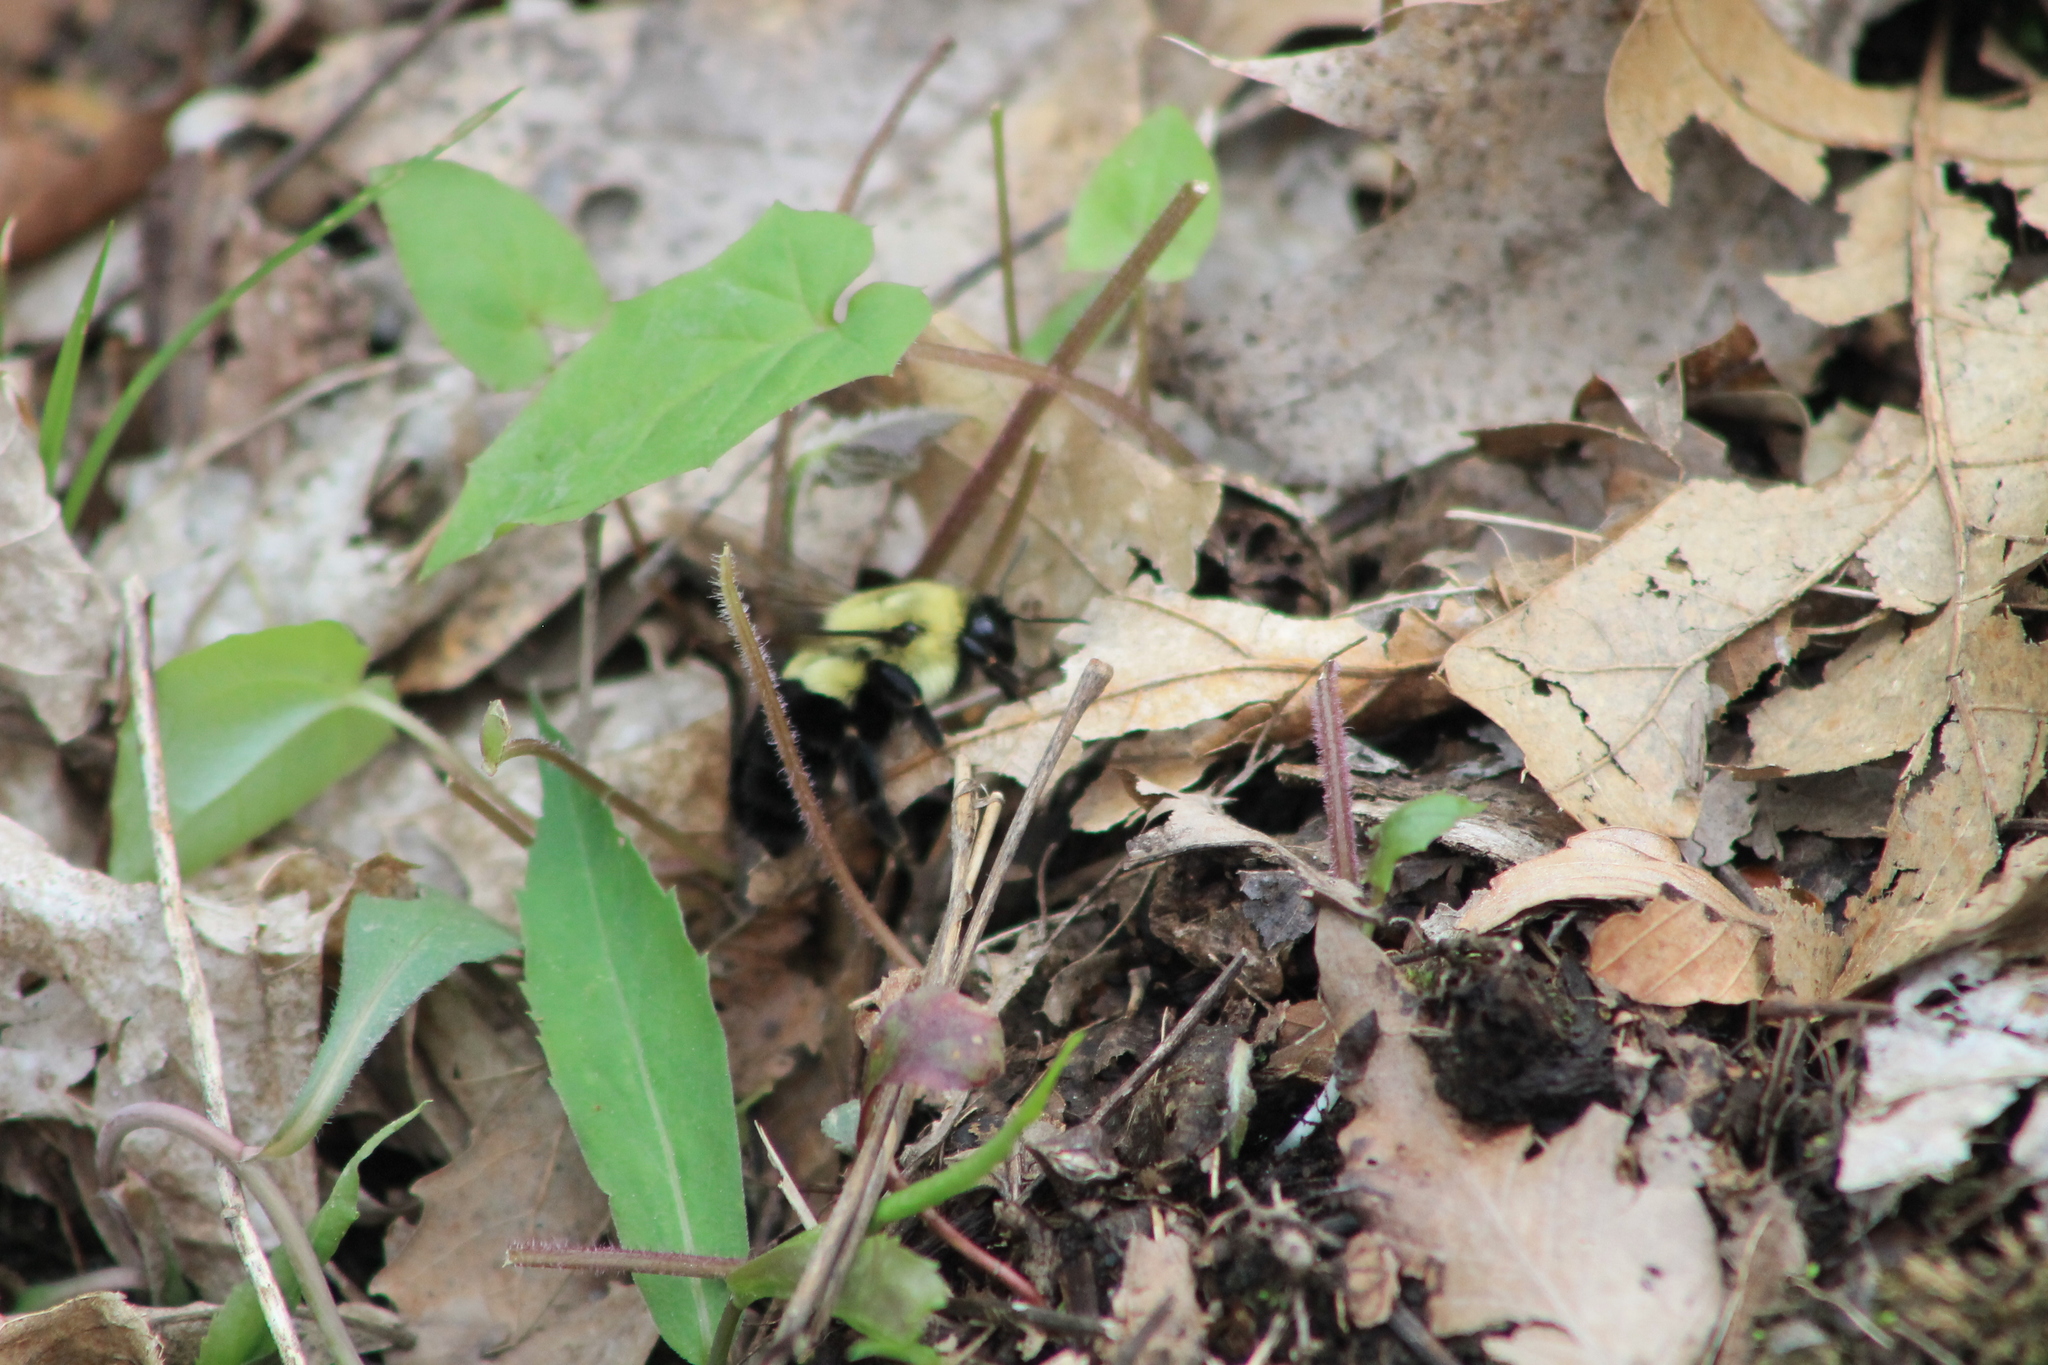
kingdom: Animalia
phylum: Arthropoda
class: Insecta
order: Hymenoptera
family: Apidae
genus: Bombus
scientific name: Bombus impatiens
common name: Common eastern bumble bee
